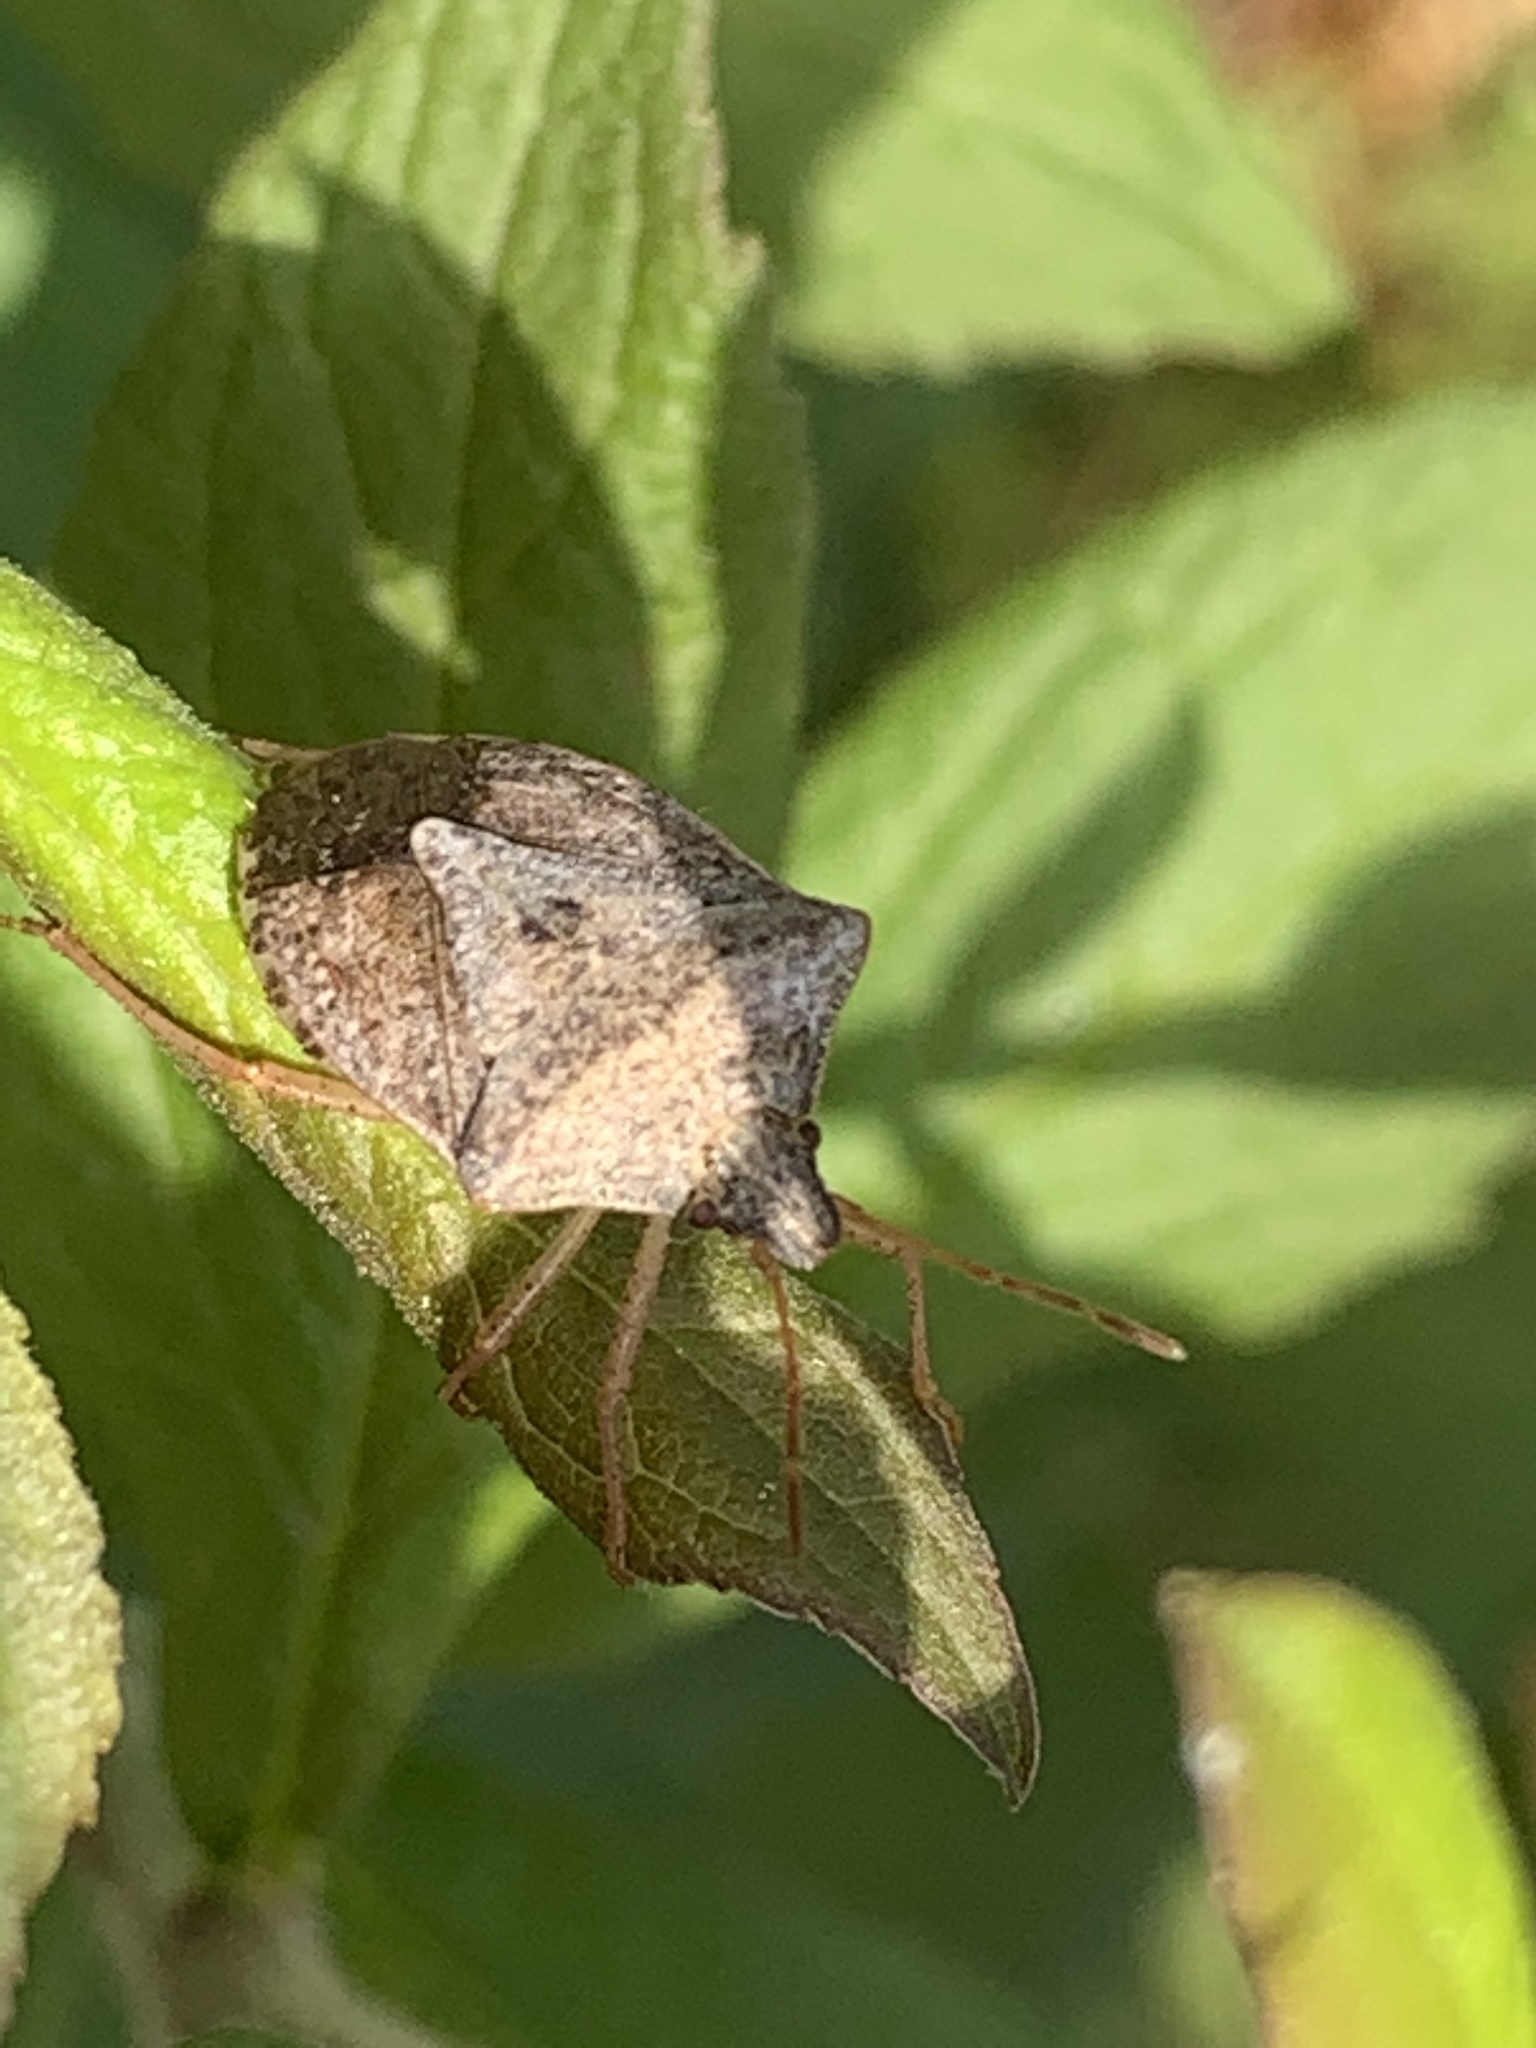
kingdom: Animalia
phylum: Arthropoda
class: Insecta
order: Hemiptera
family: Pentatomidae
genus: Euschistus
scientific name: Euschistus servus
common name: Brown stink bug
